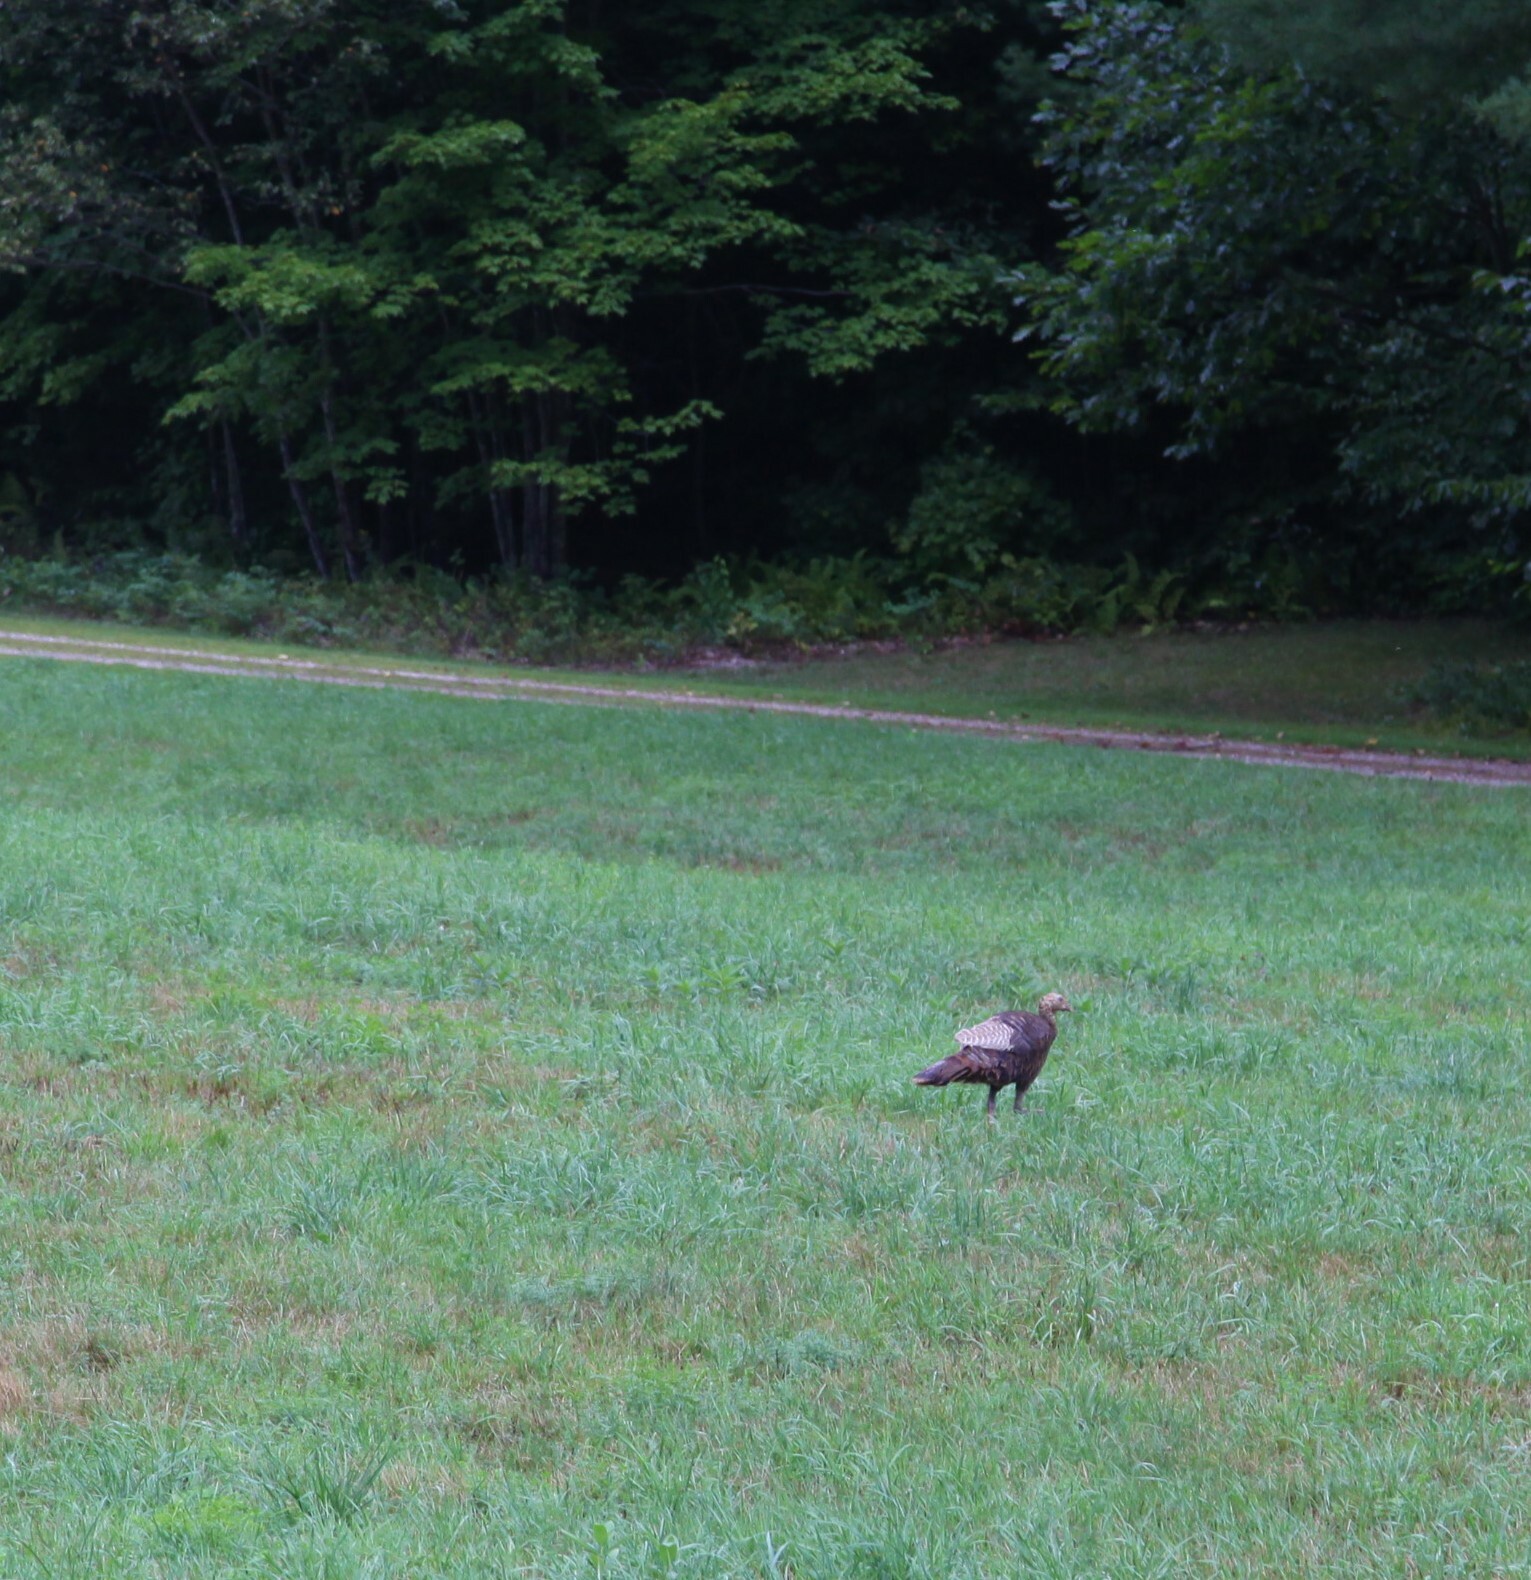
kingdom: Animalia
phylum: Chordata
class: Aves
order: Galliformes
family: Phasianidae
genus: Meleagris
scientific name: Meleagris gallopavo
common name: Wild turkey
